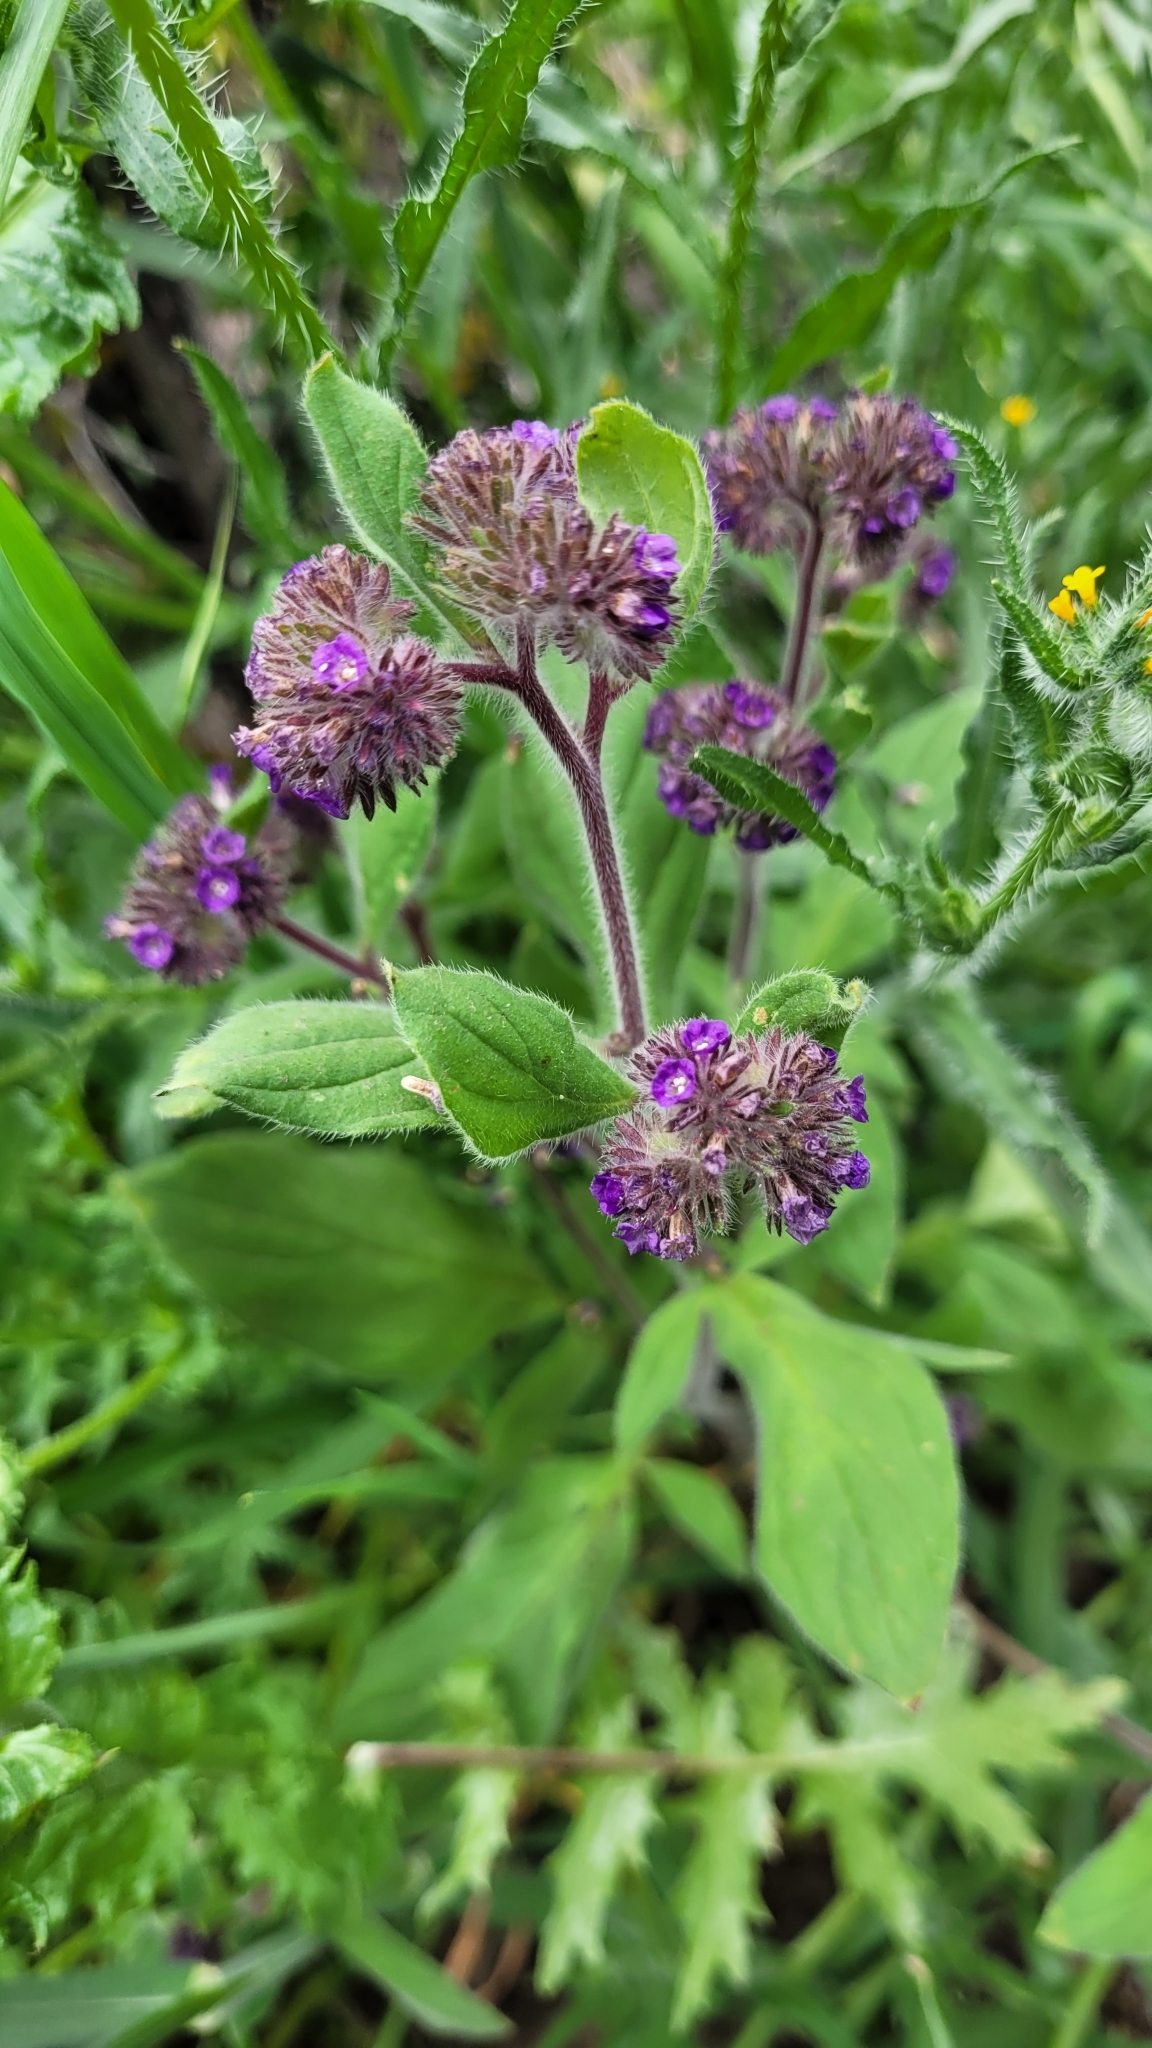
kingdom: Plantae
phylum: Tracheophyta
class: Magnoliopsida
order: Boraginales
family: Hydrophyllaceae
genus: Phacelia
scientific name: Phacelia brachyantha
